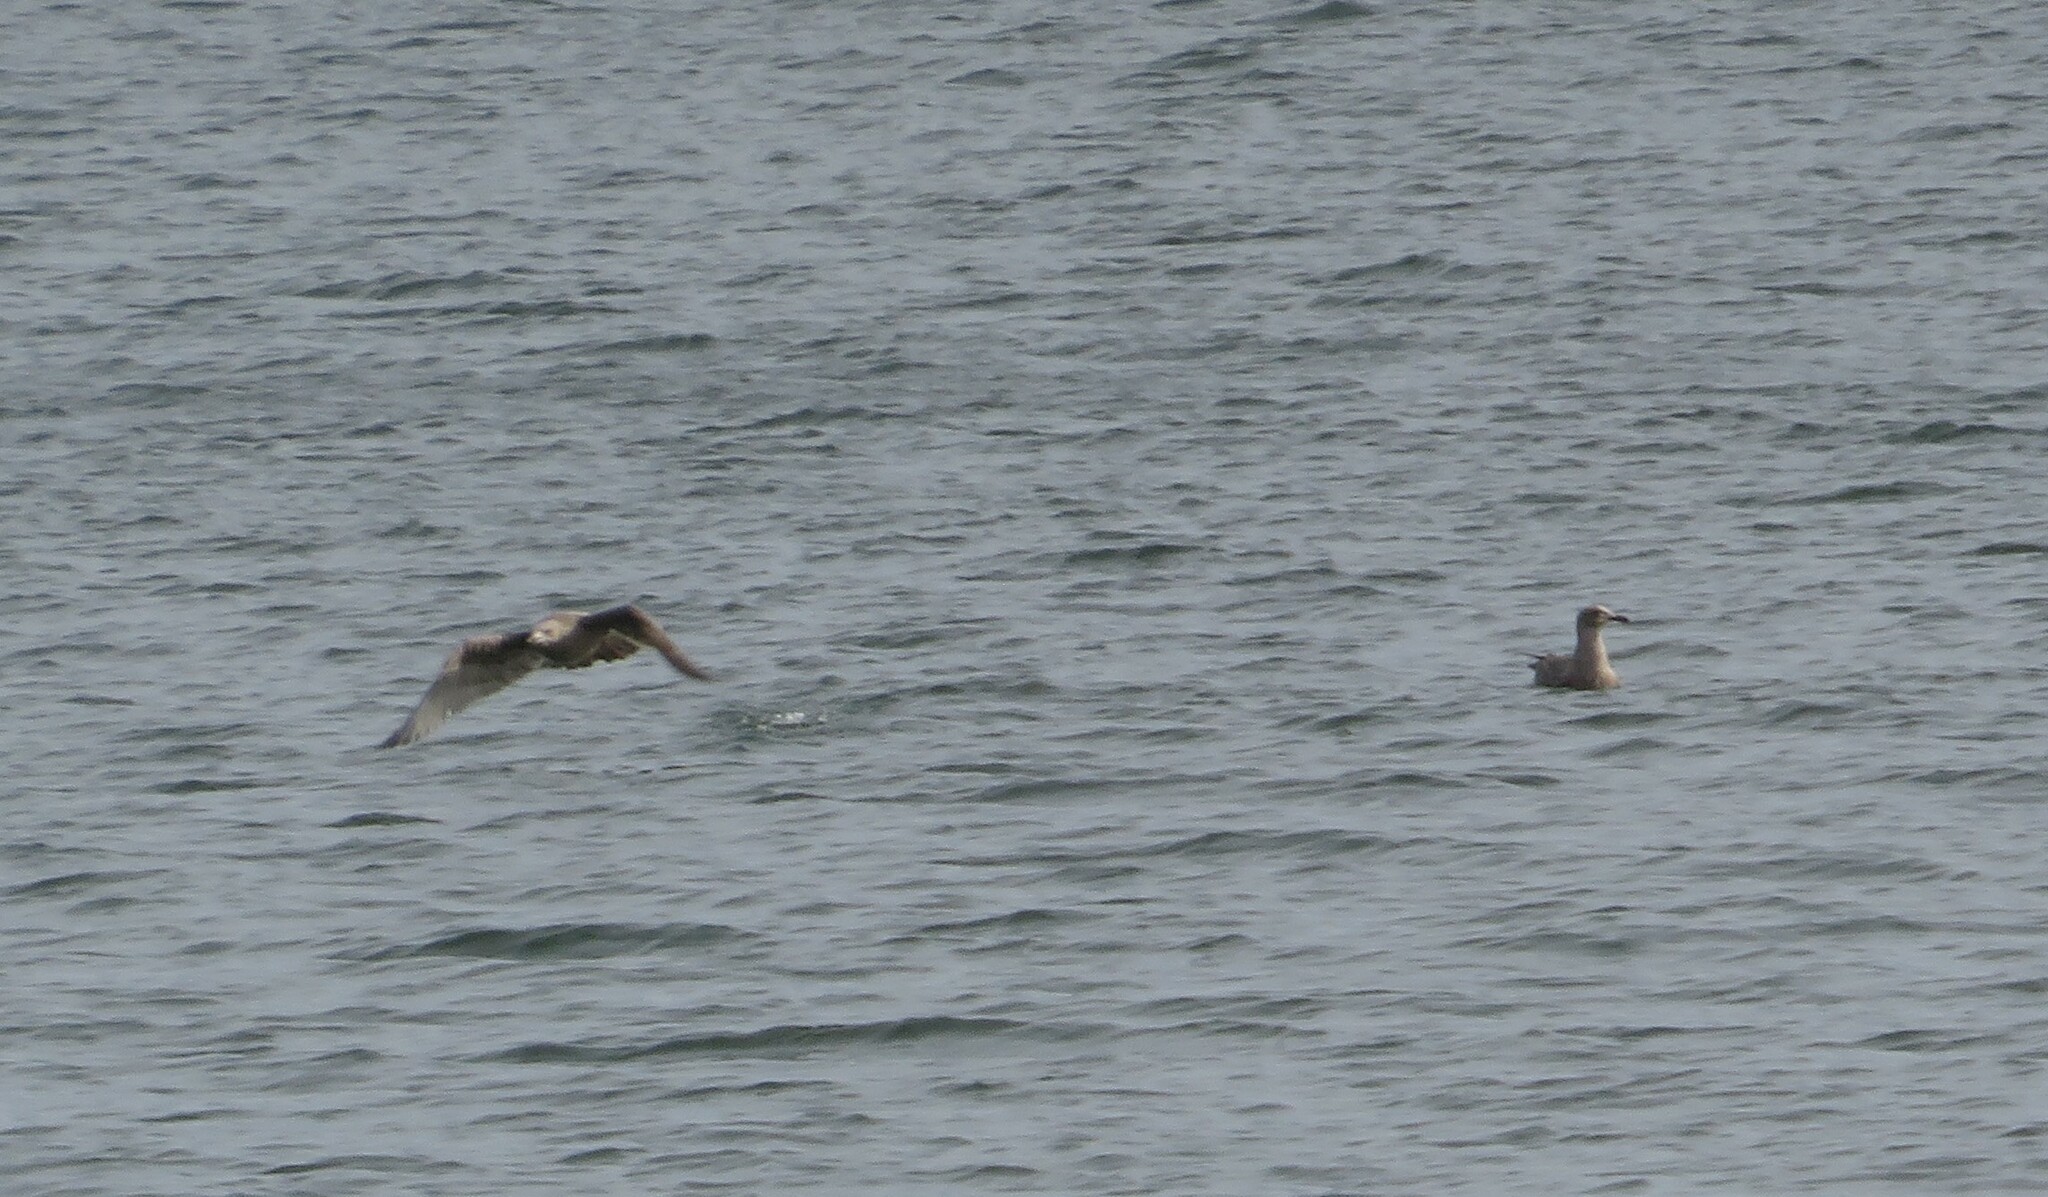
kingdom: Animalia
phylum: Chordata
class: Aves
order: Charadriiformes
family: Laridae
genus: Larus
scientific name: Larus argentatus
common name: Herring gull
